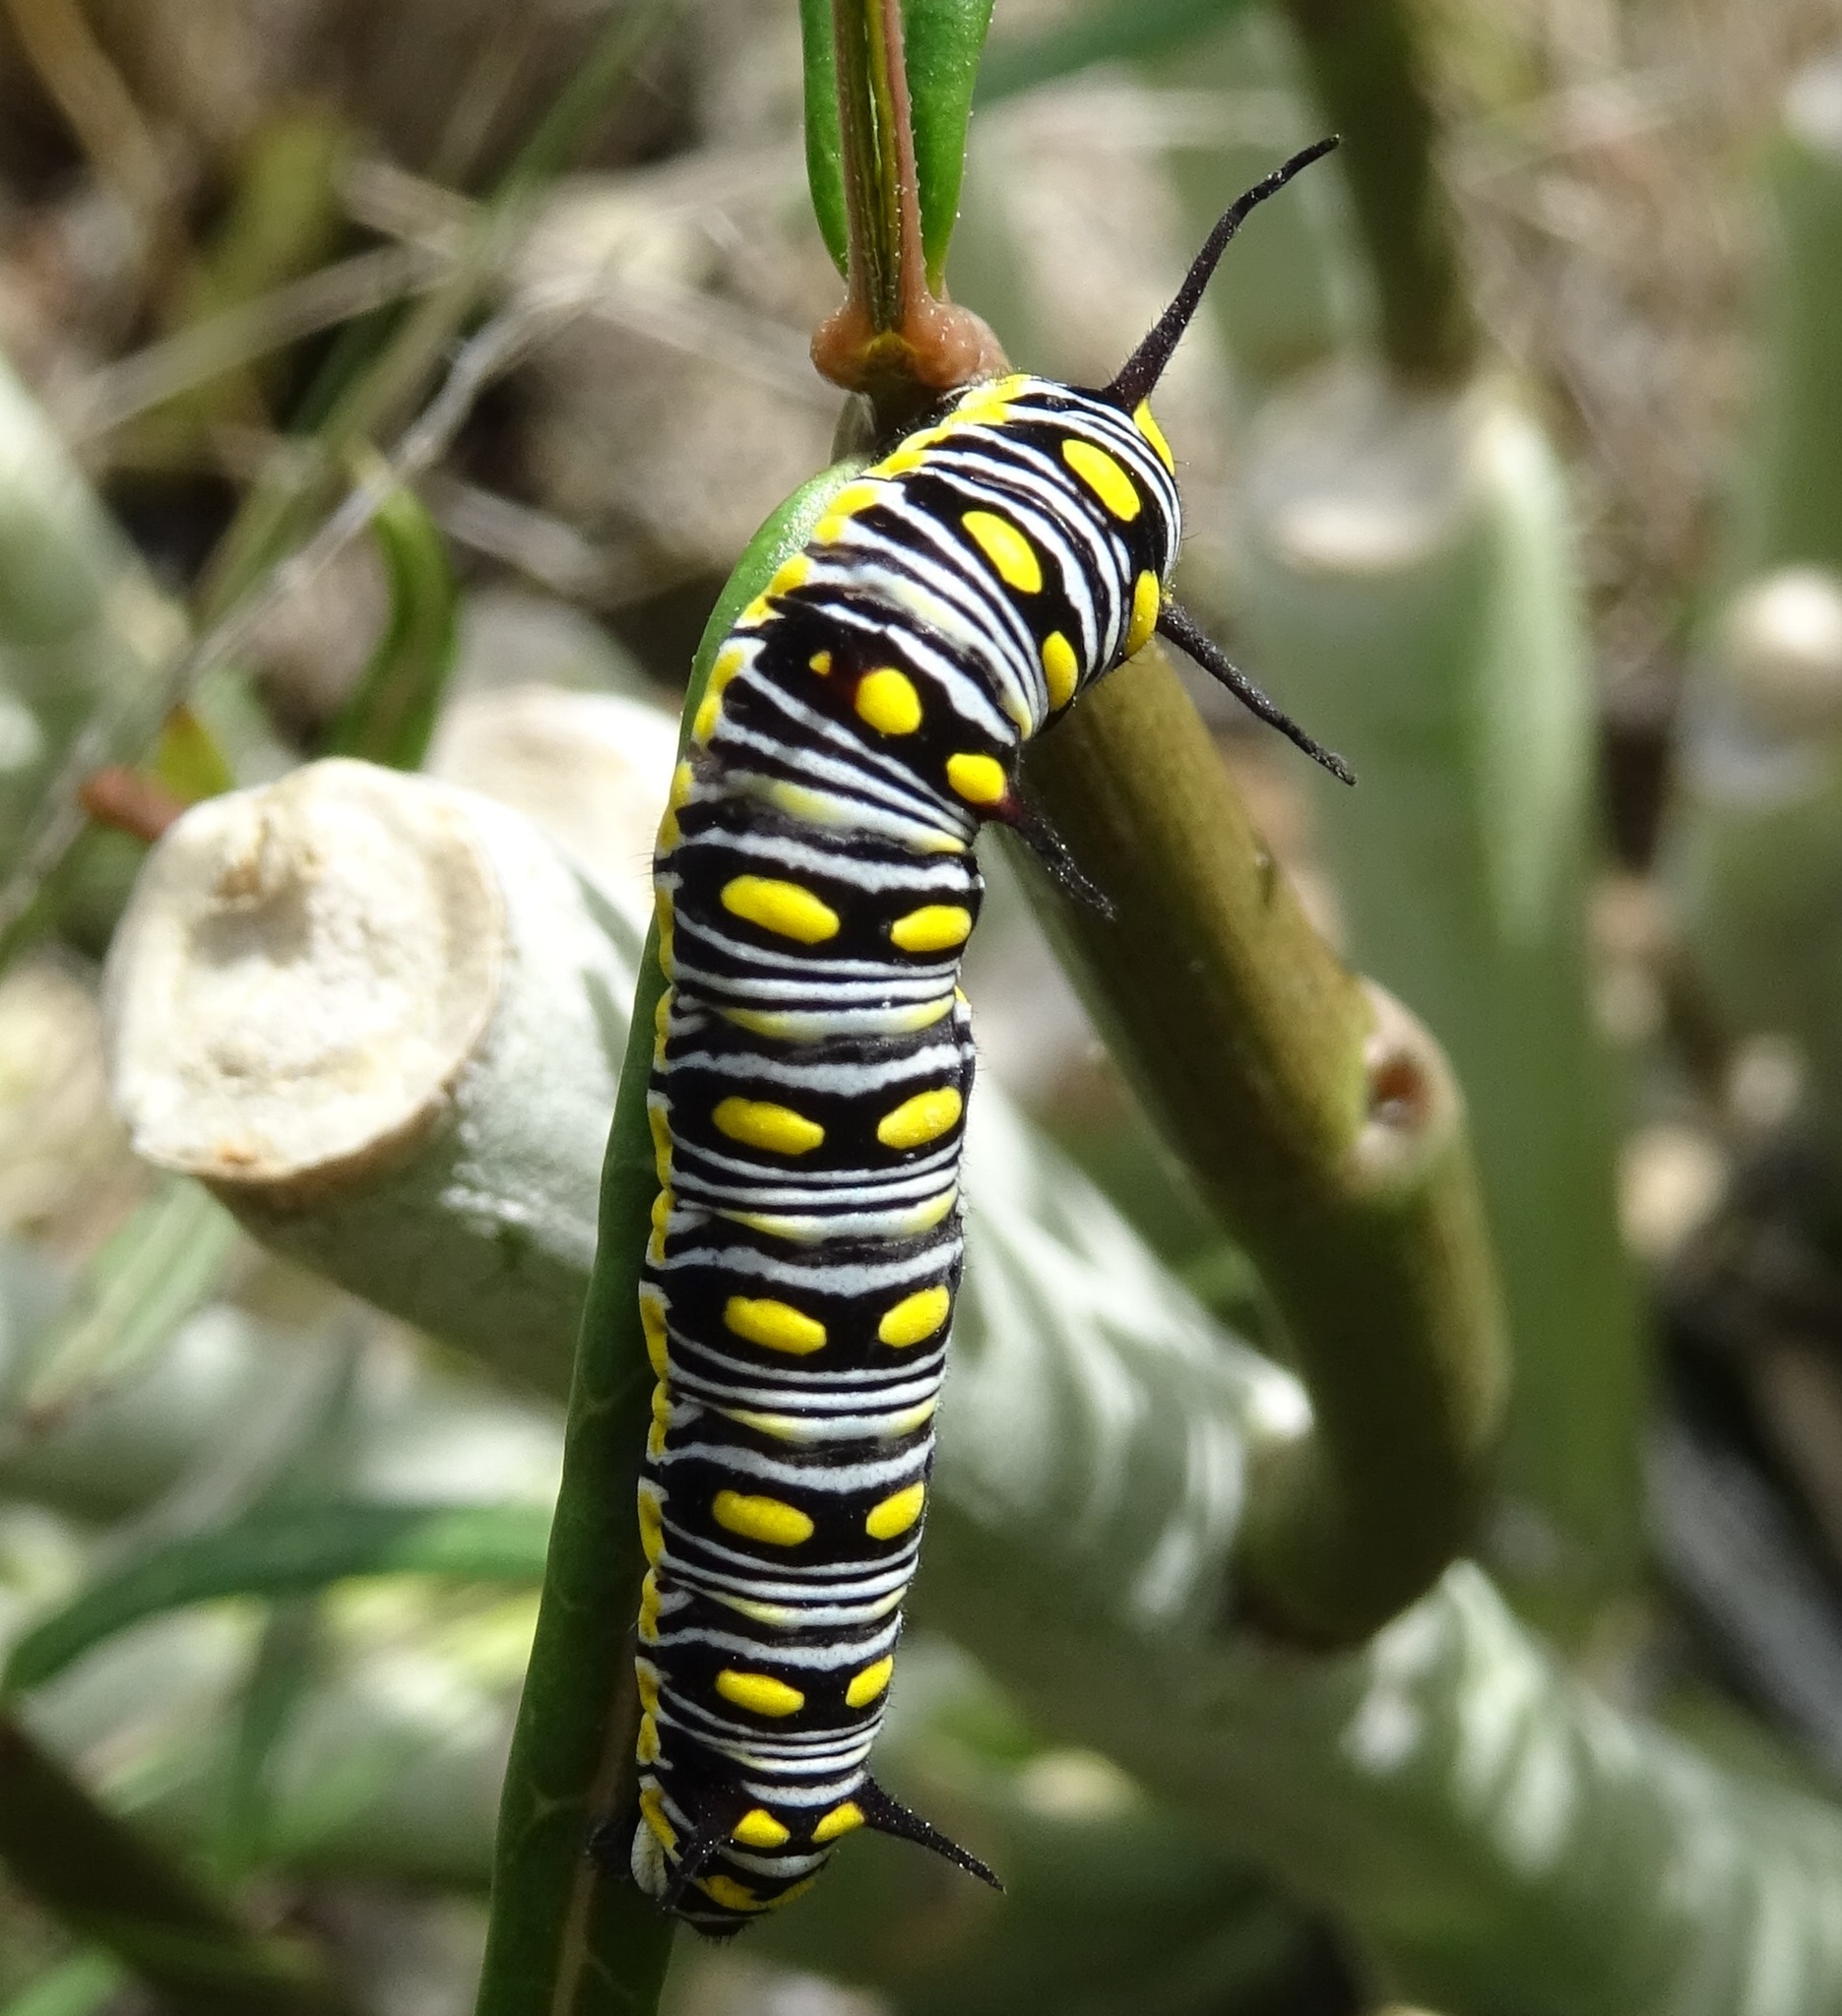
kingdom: Animalia
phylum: Arthropoda
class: Insecta
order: Lepidoptera
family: Nymphalidae
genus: Danaus
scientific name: Danaus chrysippus
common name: Plain tiger
